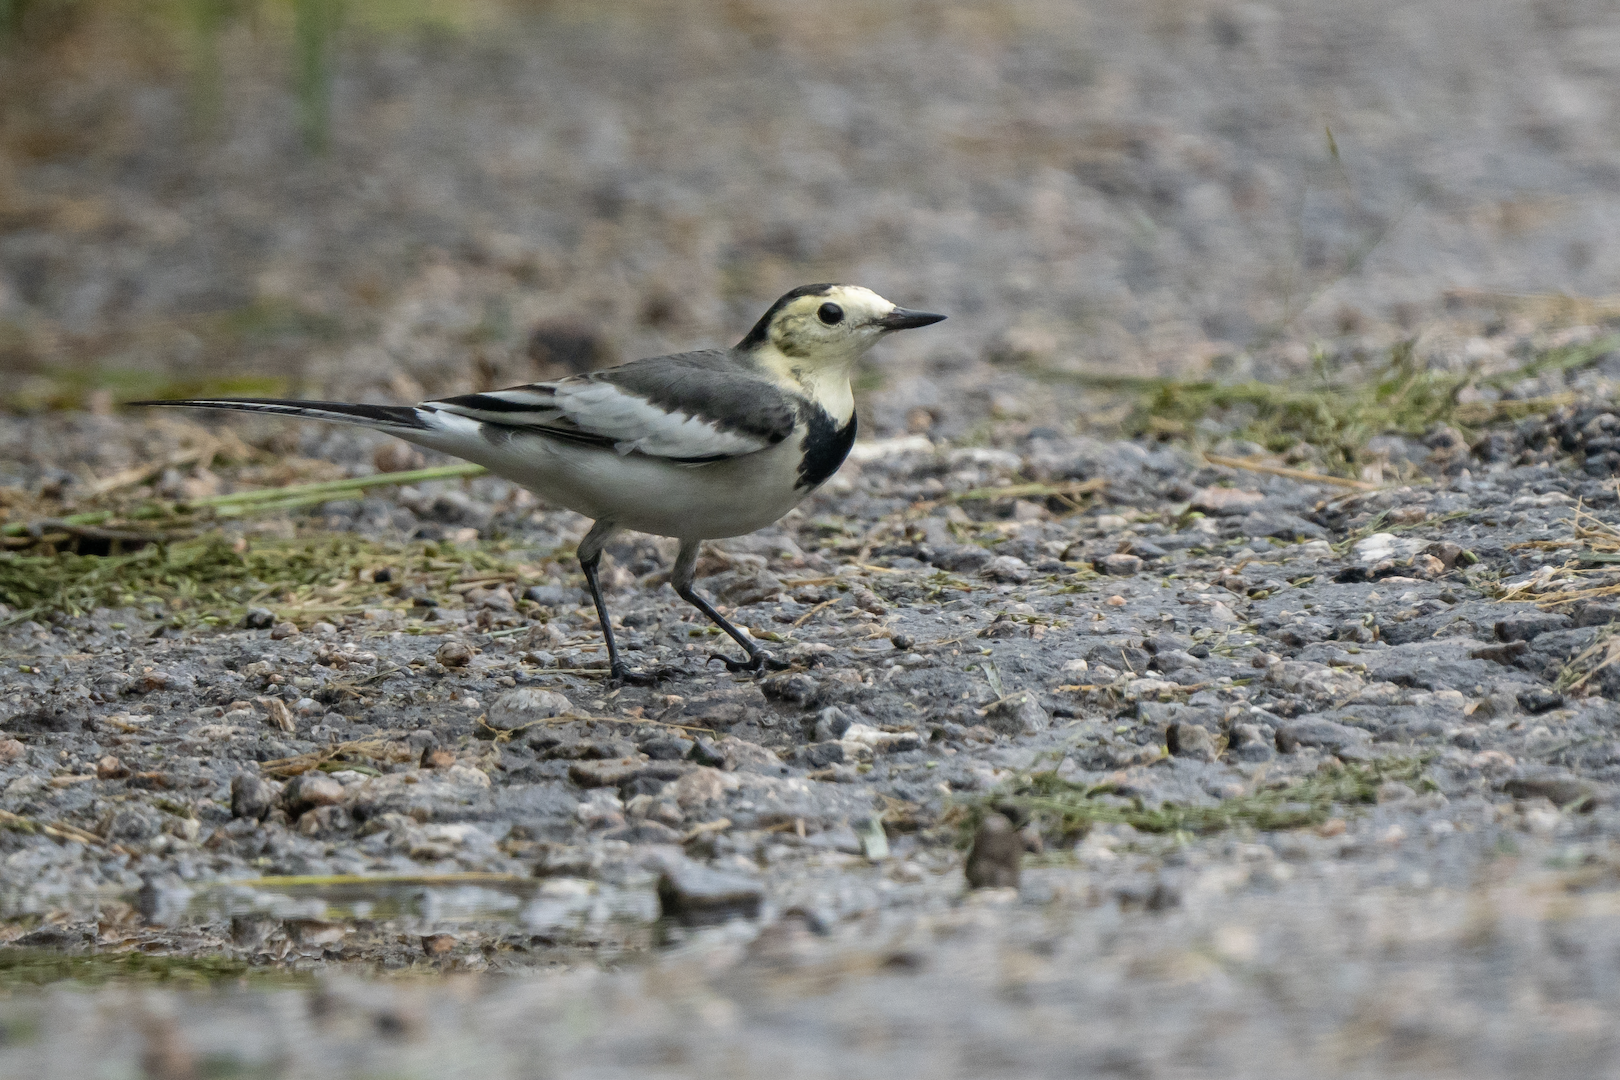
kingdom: Animalia
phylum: Chordata
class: Aves
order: Passeriformes
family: Motacillidae
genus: Motacilla
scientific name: Motacilla alba
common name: White wagtail
